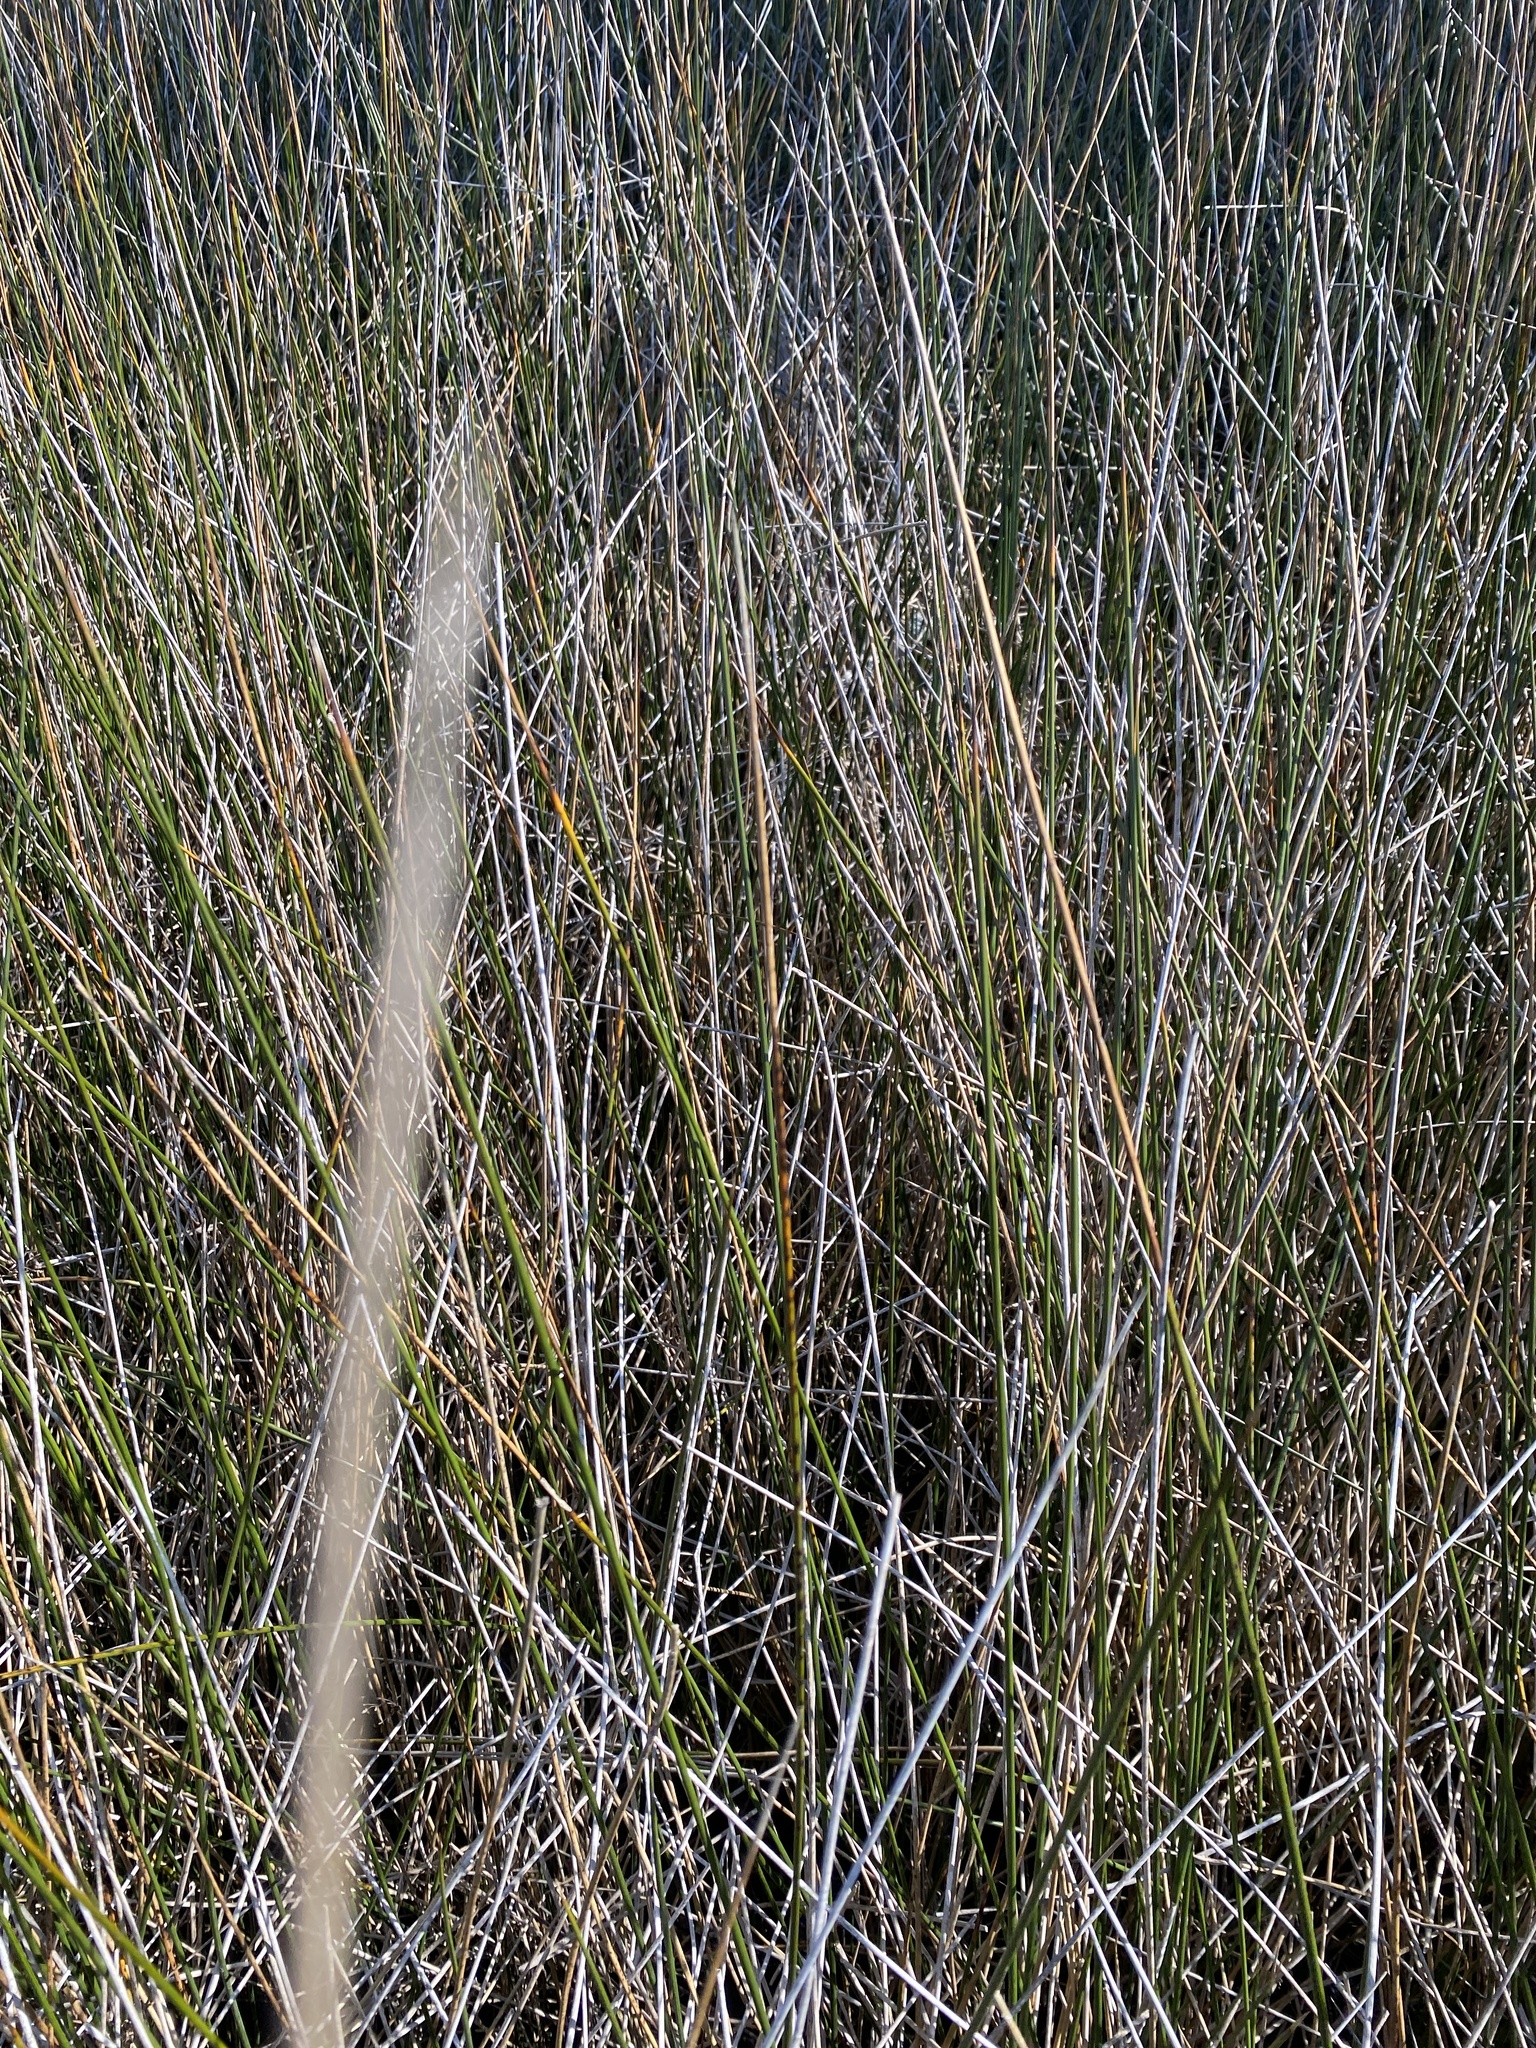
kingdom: Plantae
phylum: Tracheophyta
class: Liliopsida
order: Poales
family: Juncaceae
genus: Juncus
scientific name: Juncus roemerianus
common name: Roemer's rush
